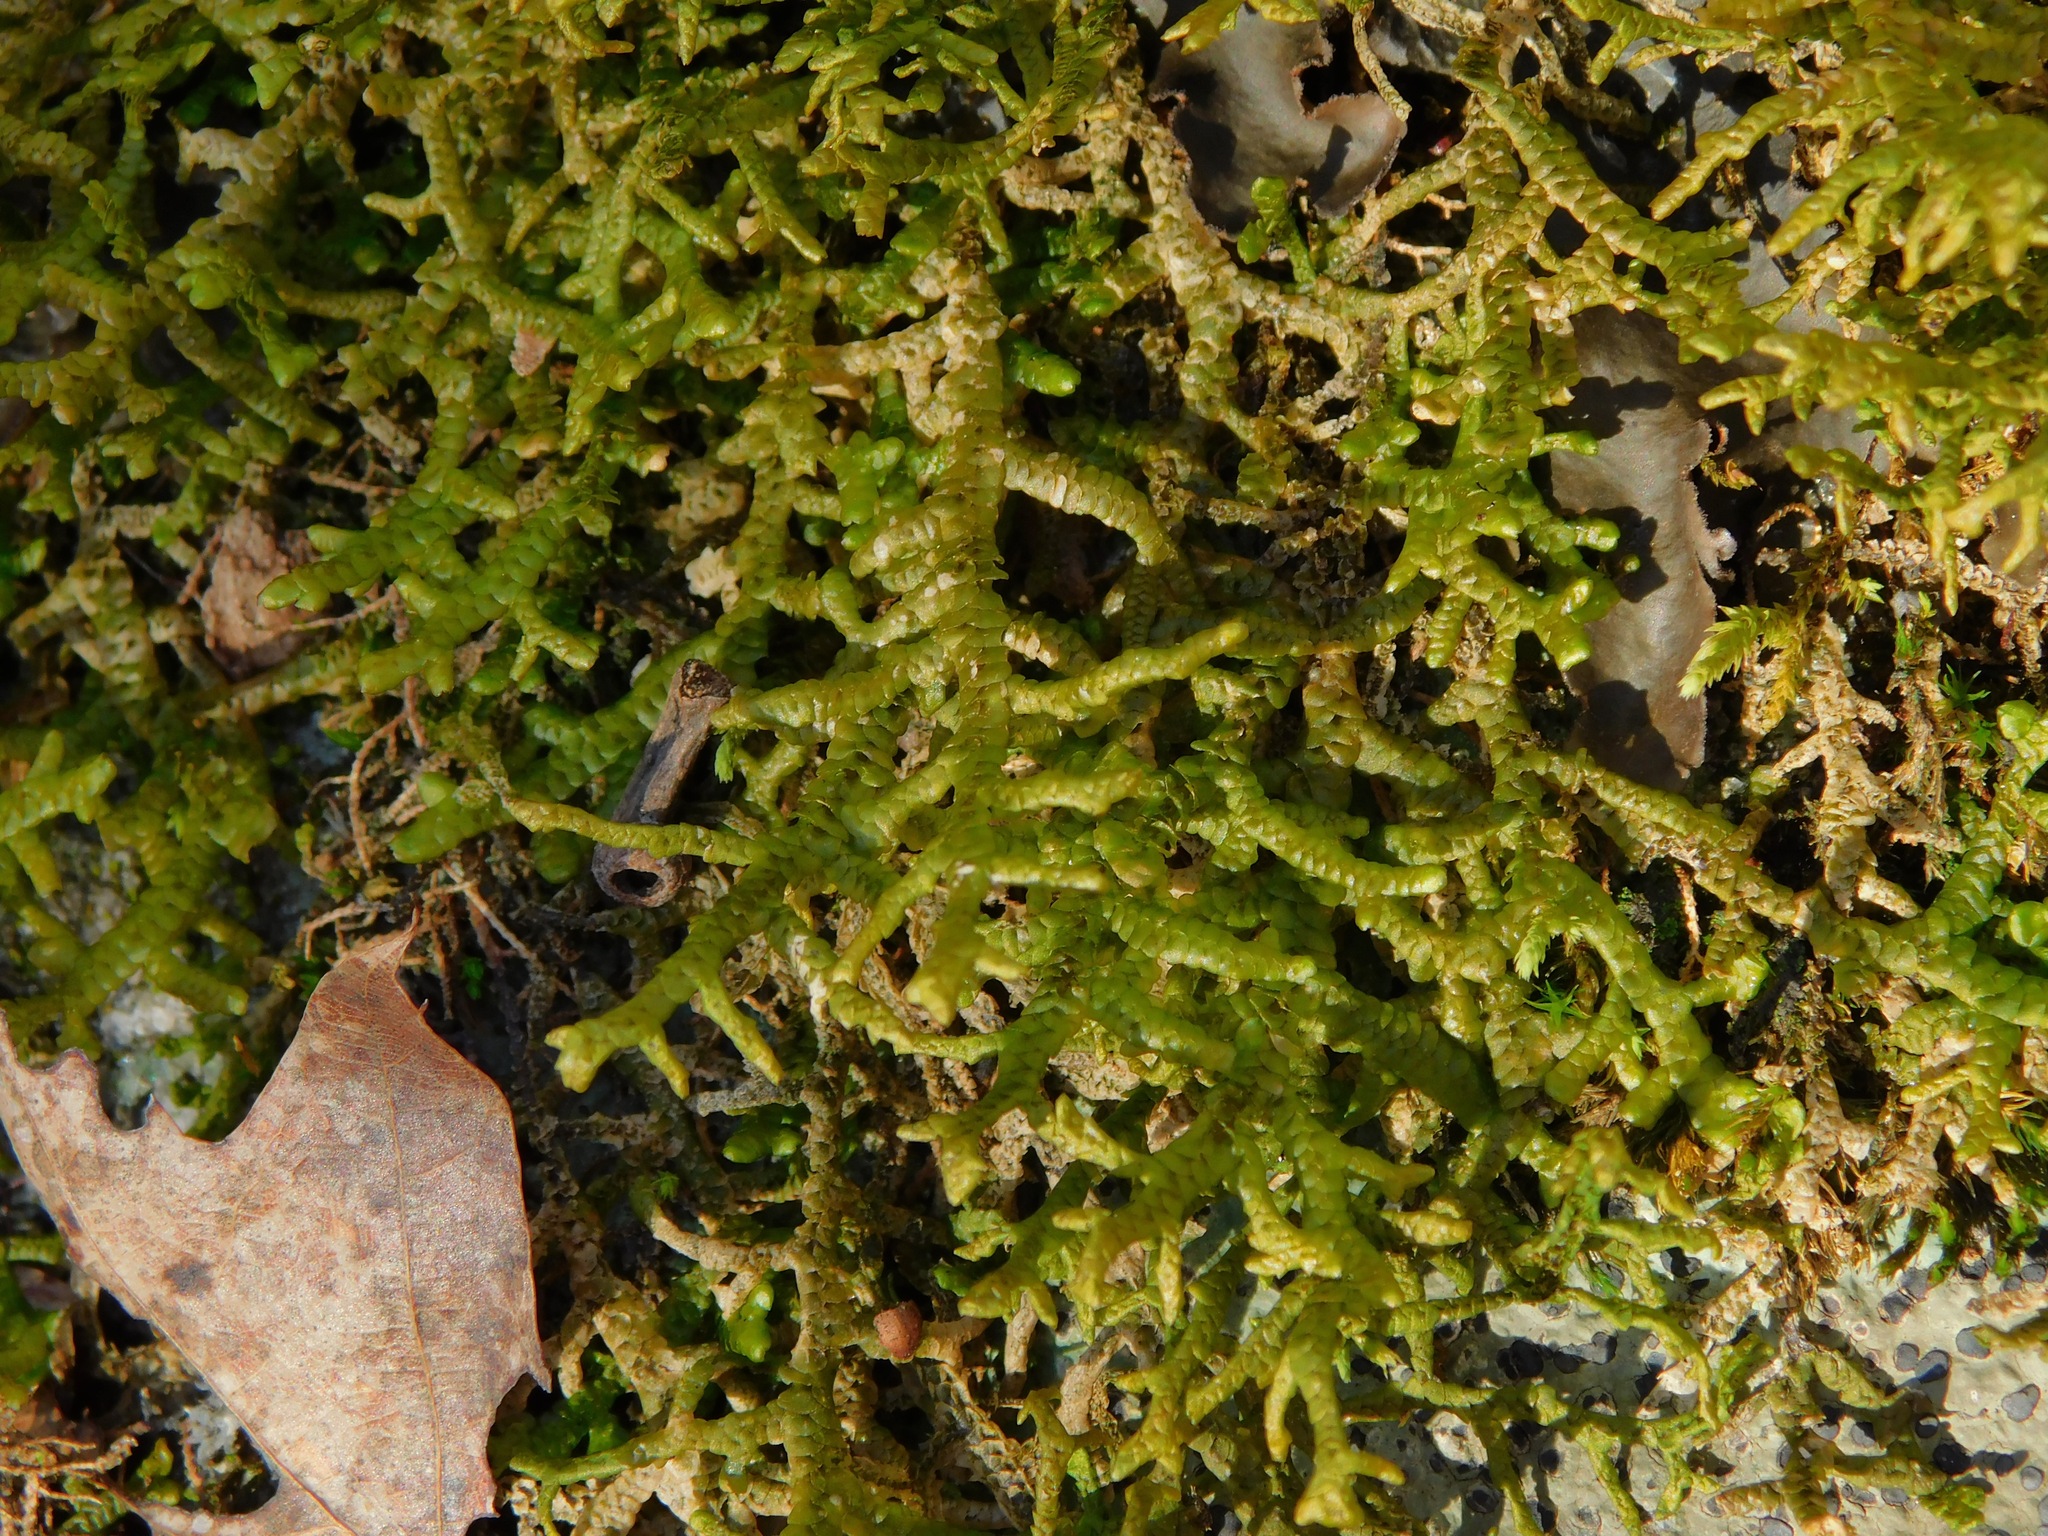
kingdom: Plantae
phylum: Marchantiophyta
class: Jungermanniopsida
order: Porellales
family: Porellaceae
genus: Porella
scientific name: Porella platyphylla
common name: Wall scalewort
